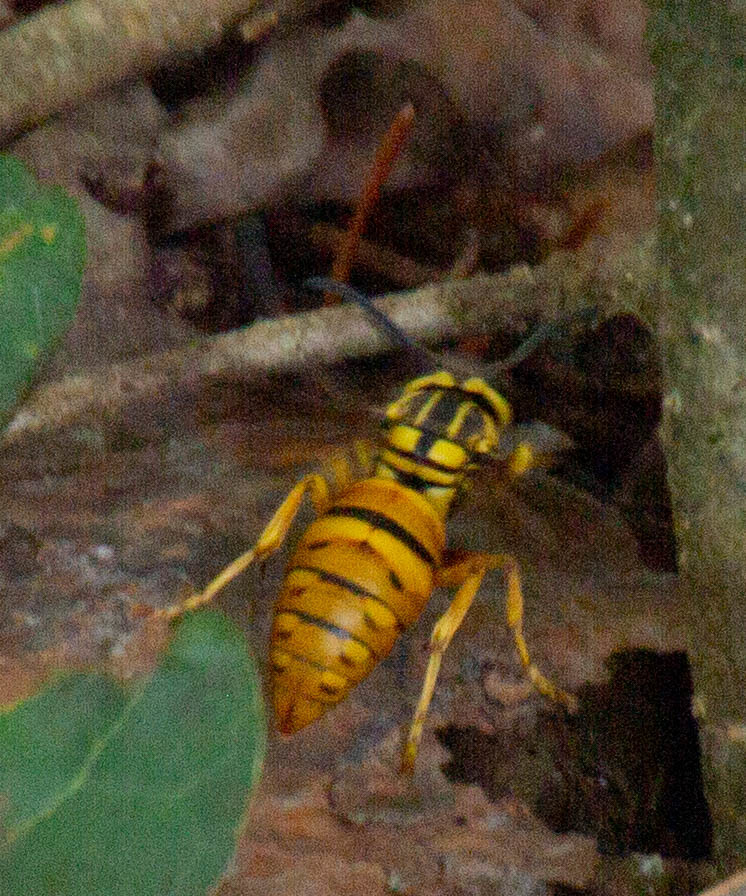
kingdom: Animalia
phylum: Arthropoda
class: Insecta
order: Hymenoptera
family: Vespidae
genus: Vespula
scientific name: Vespula squamosa
